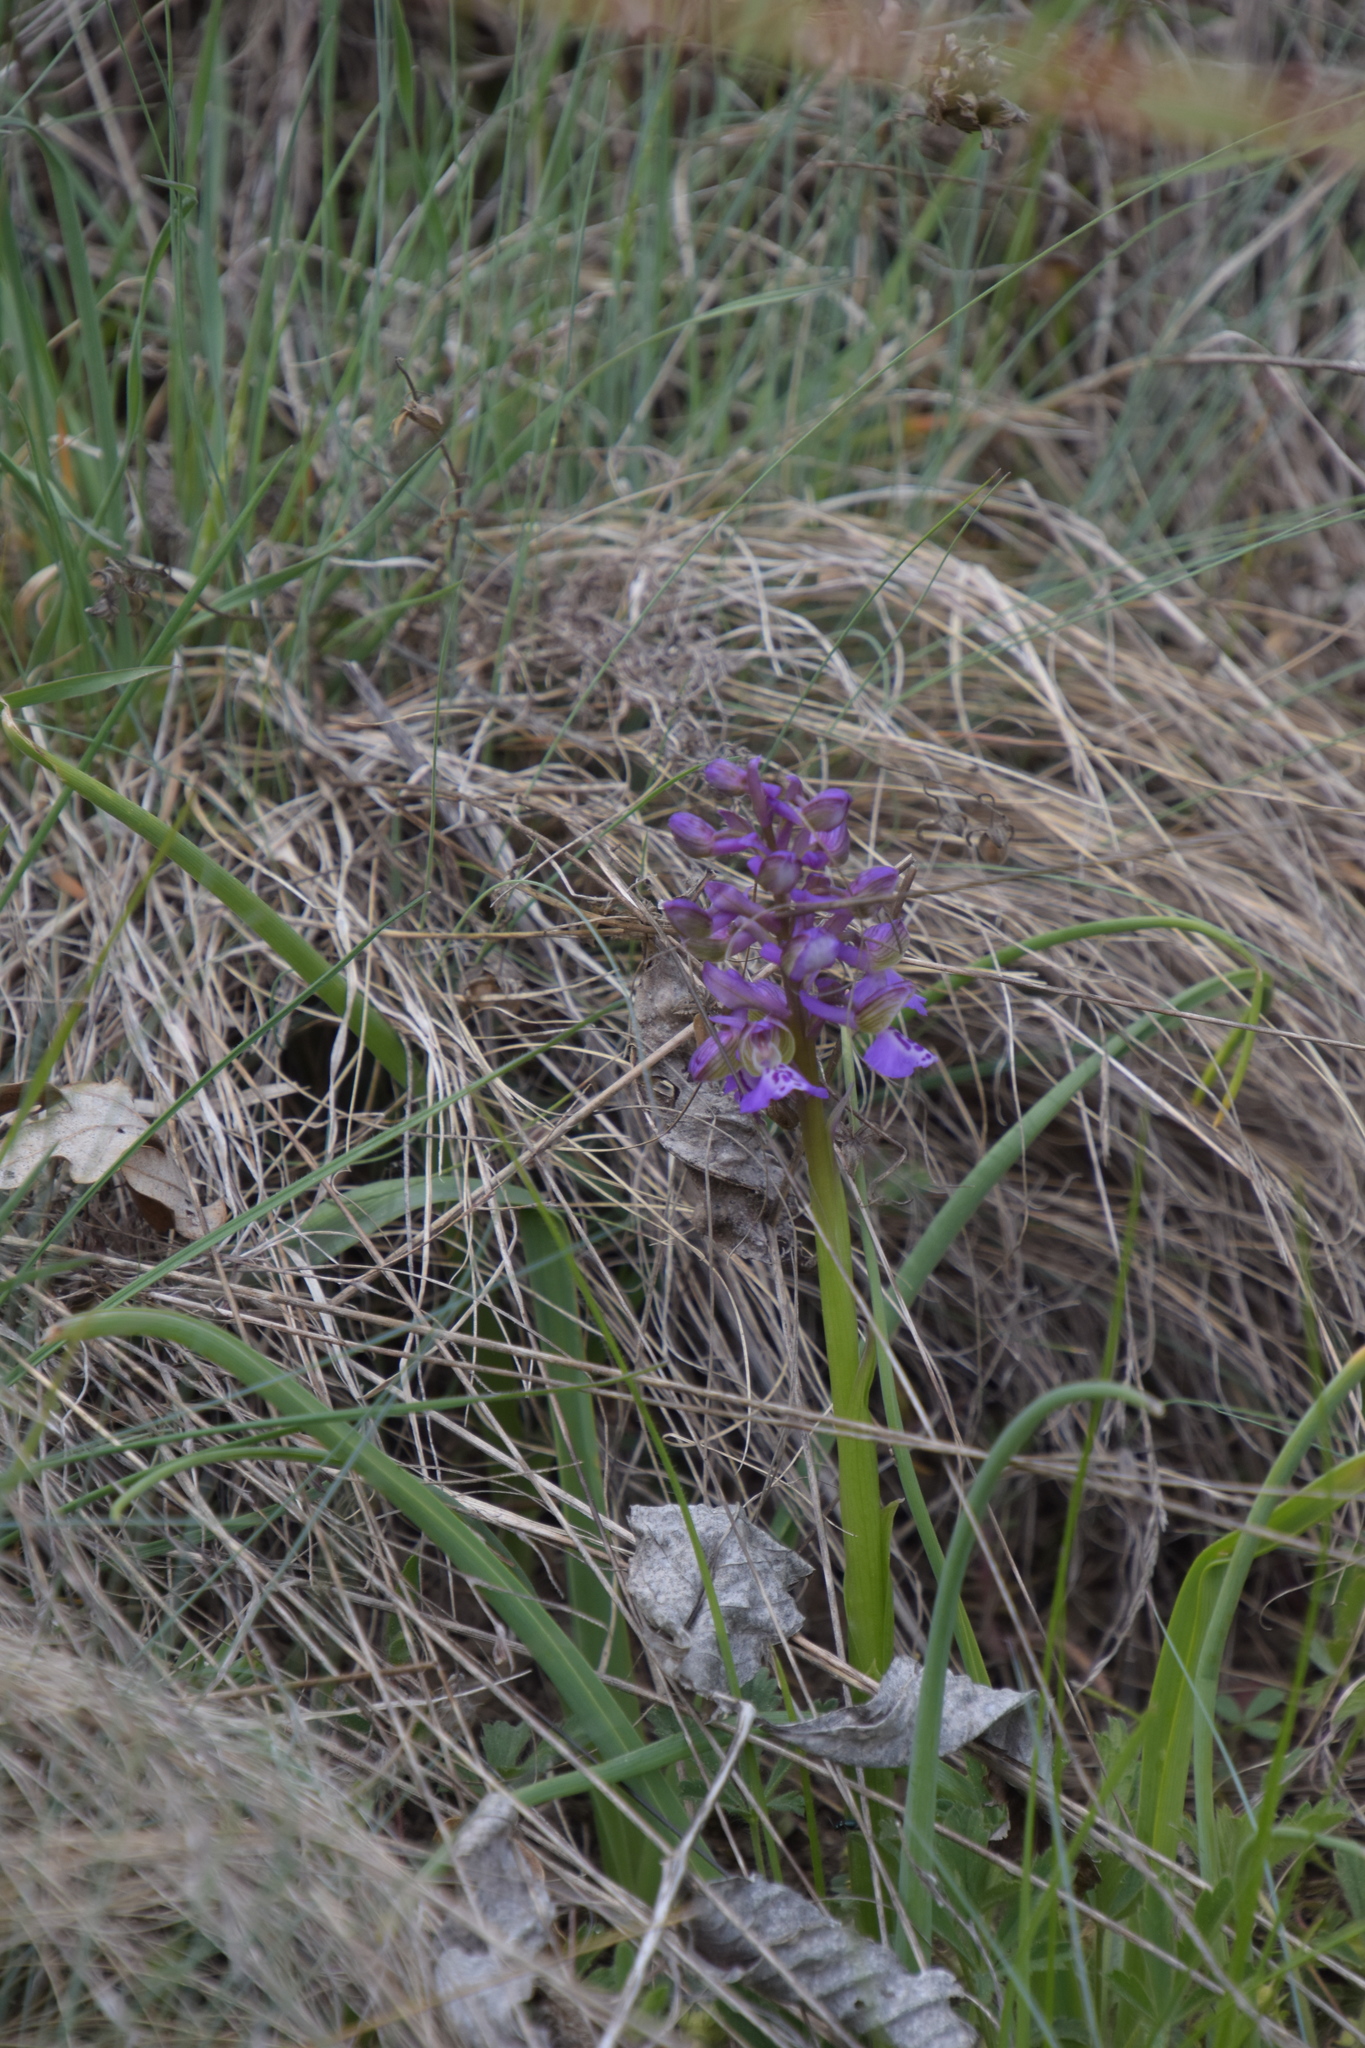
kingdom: Plantae
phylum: Tracheophyta
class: Liliopsida
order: Asparagales
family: Orchidaceae
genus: Anacamptis
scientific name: Anacamptis morio
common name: Green-winged orchid
